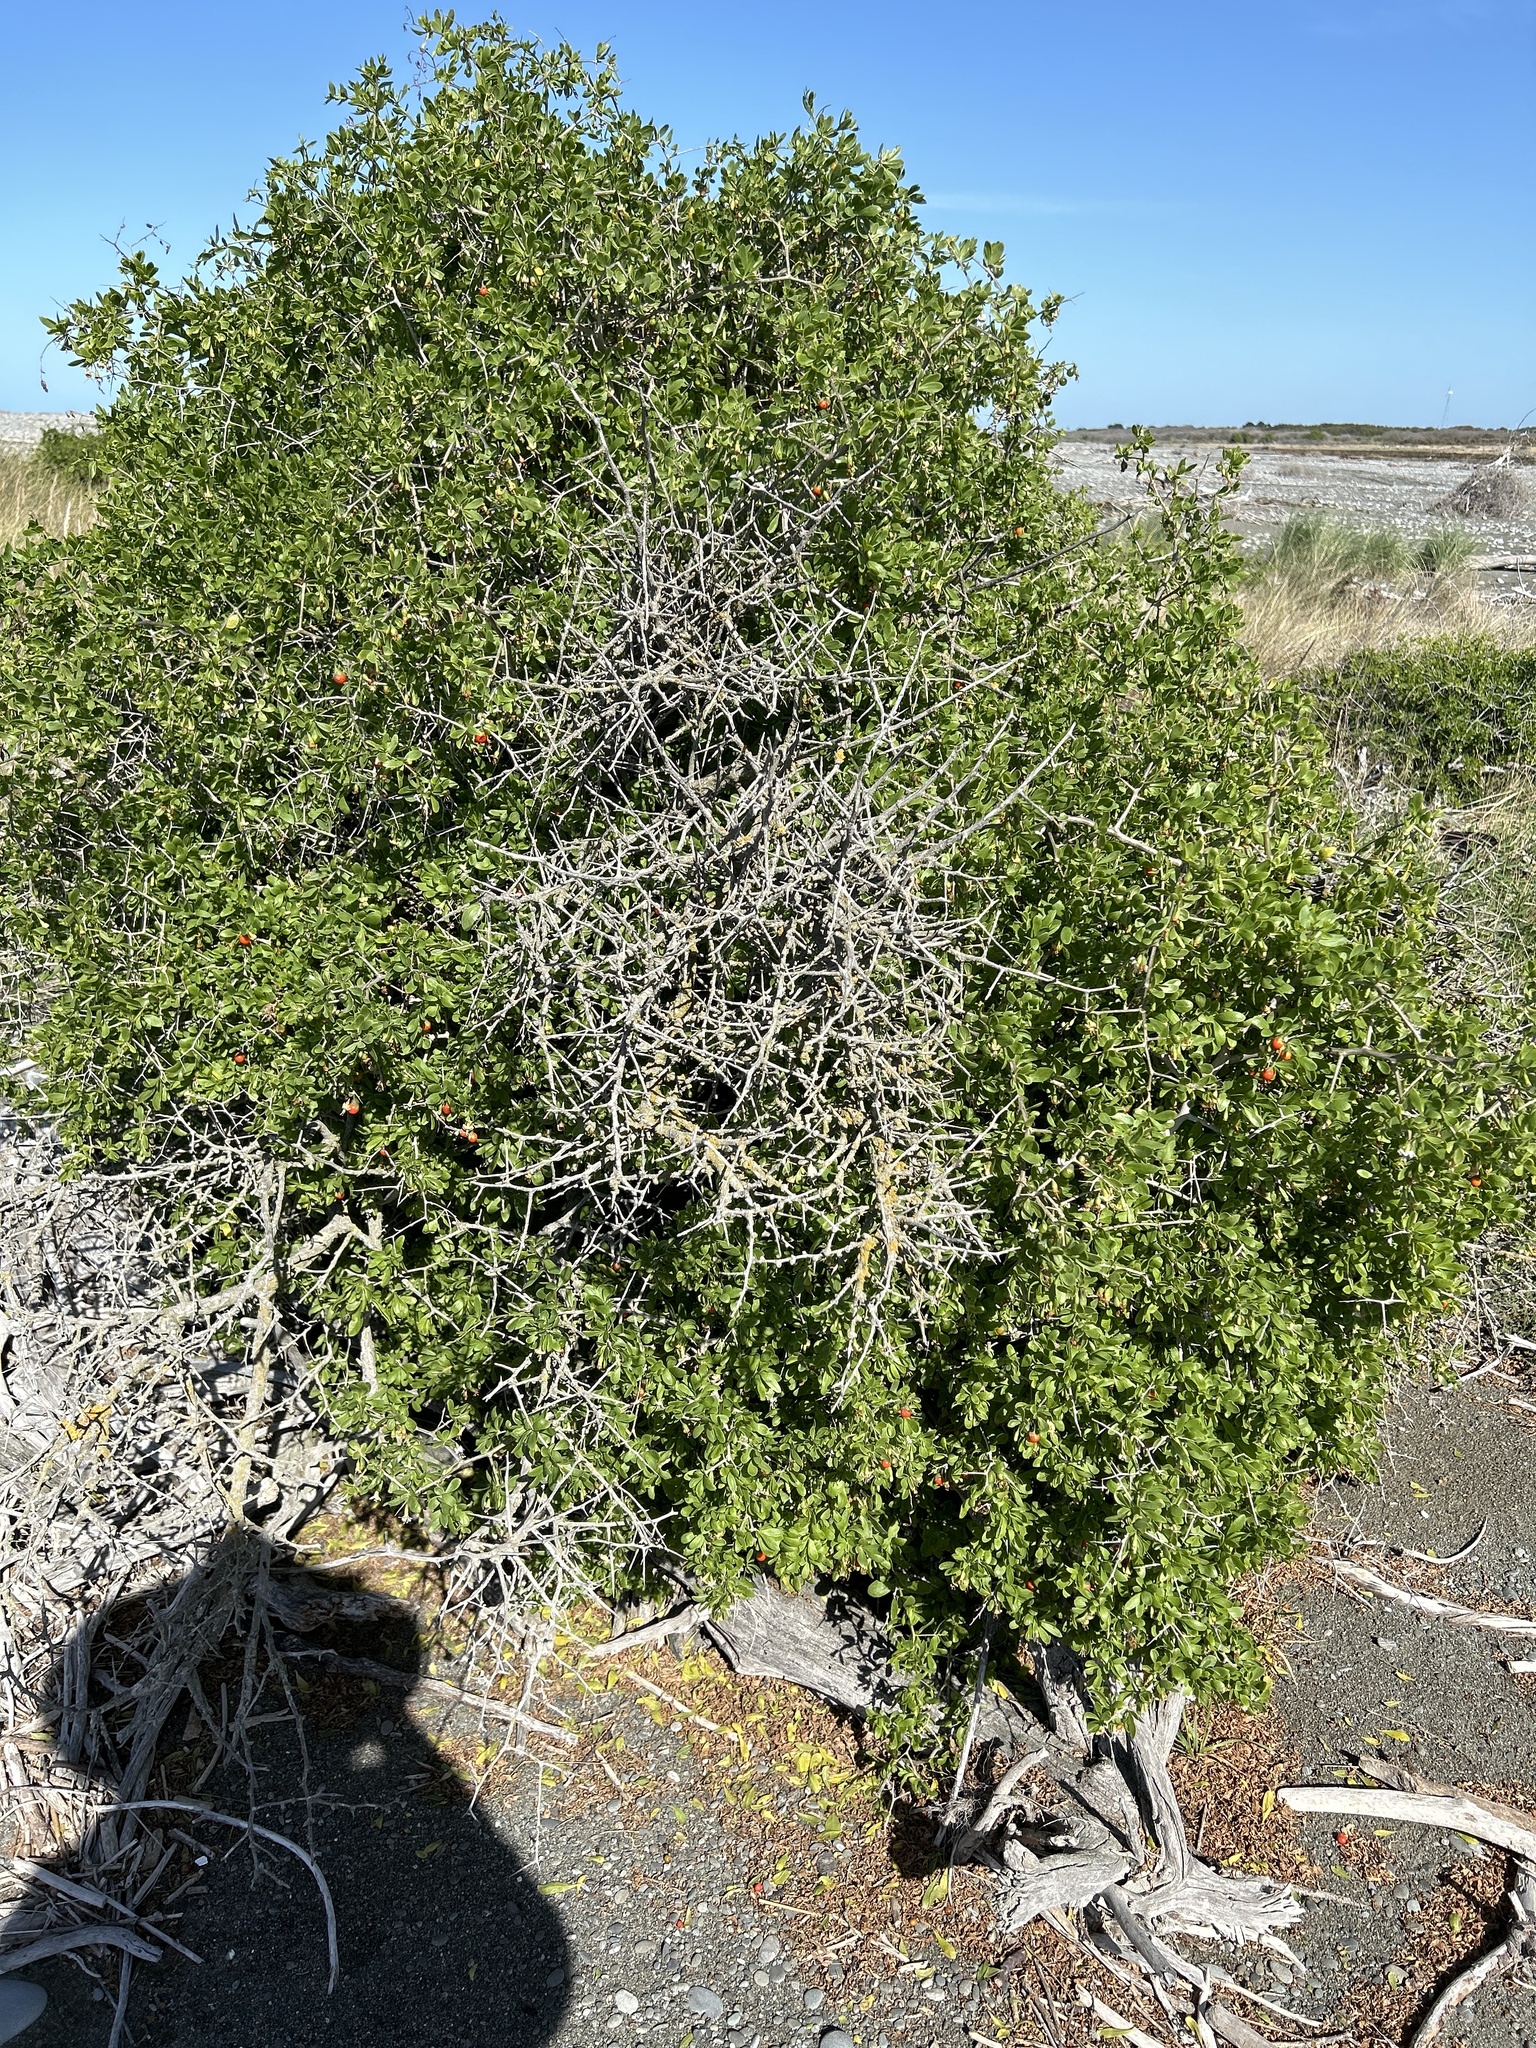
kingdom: Plantae
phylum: Tracheophyta
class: Magnoliopsida
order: Solanales
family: Solanaceae
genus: Lycium
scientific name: Lycium ferocissimum
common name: African boxthorn
